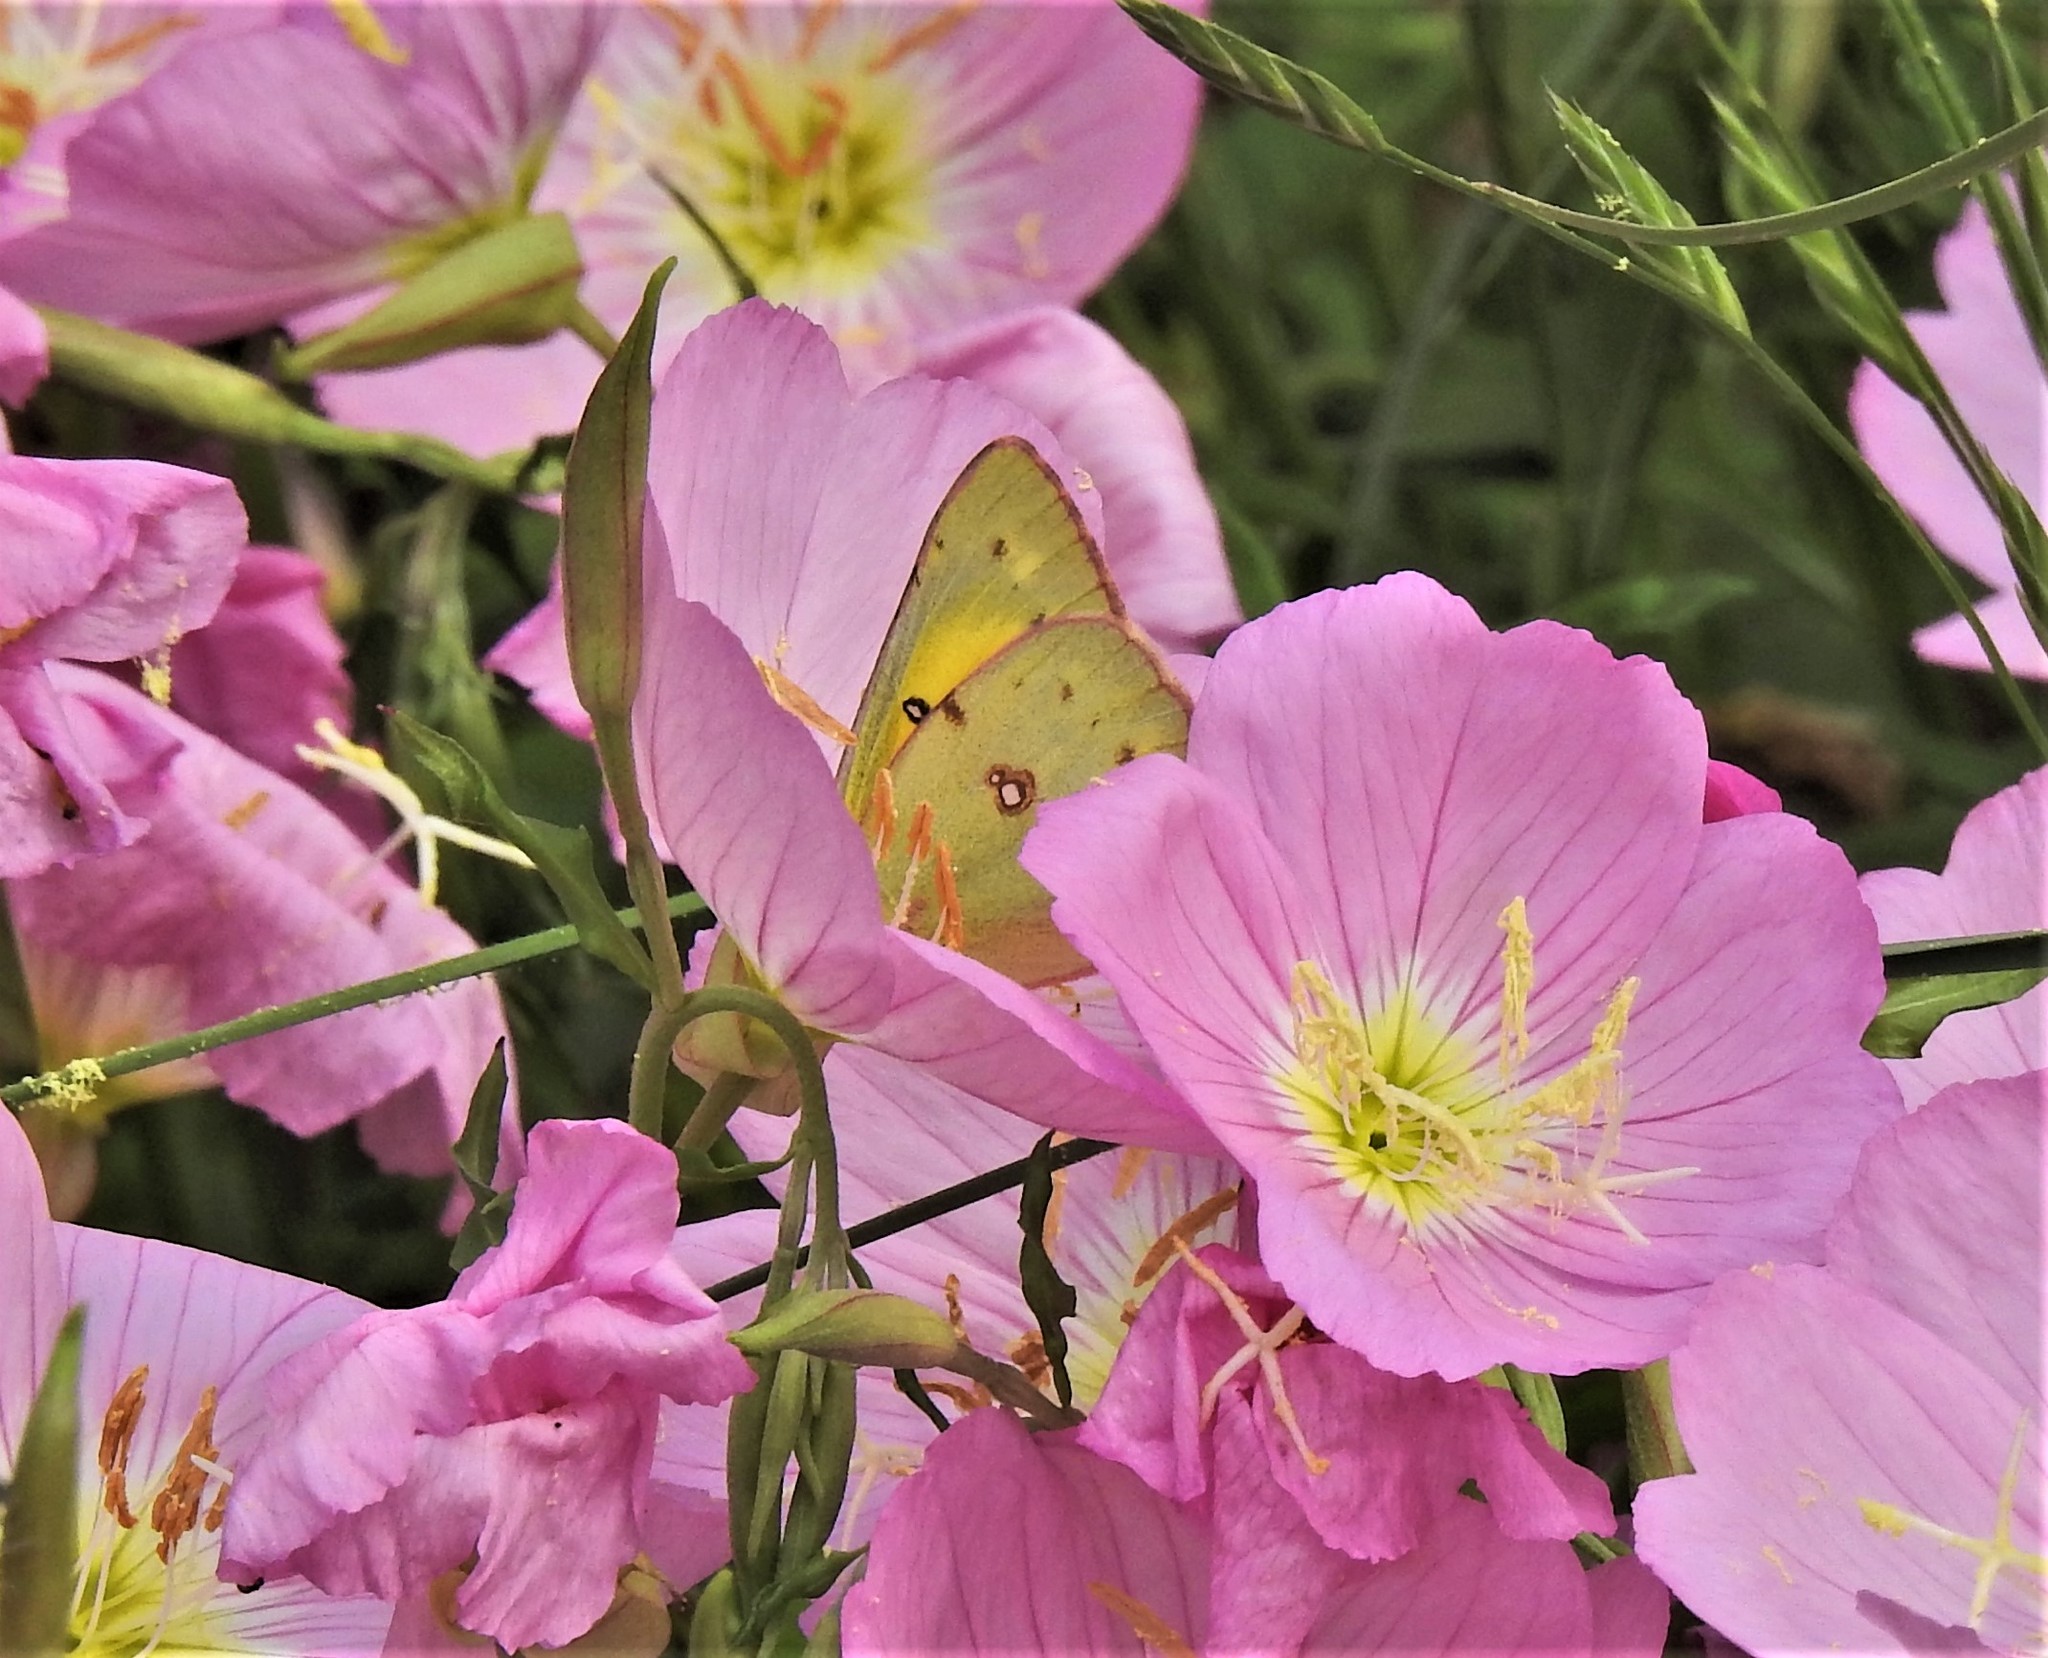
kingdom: Animalia
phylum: Arthropoda
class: Insecta
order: Lepidoptera
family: Pieridae
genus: Colias
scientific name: Colias eurytheme
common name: Alfalfa butterfly
